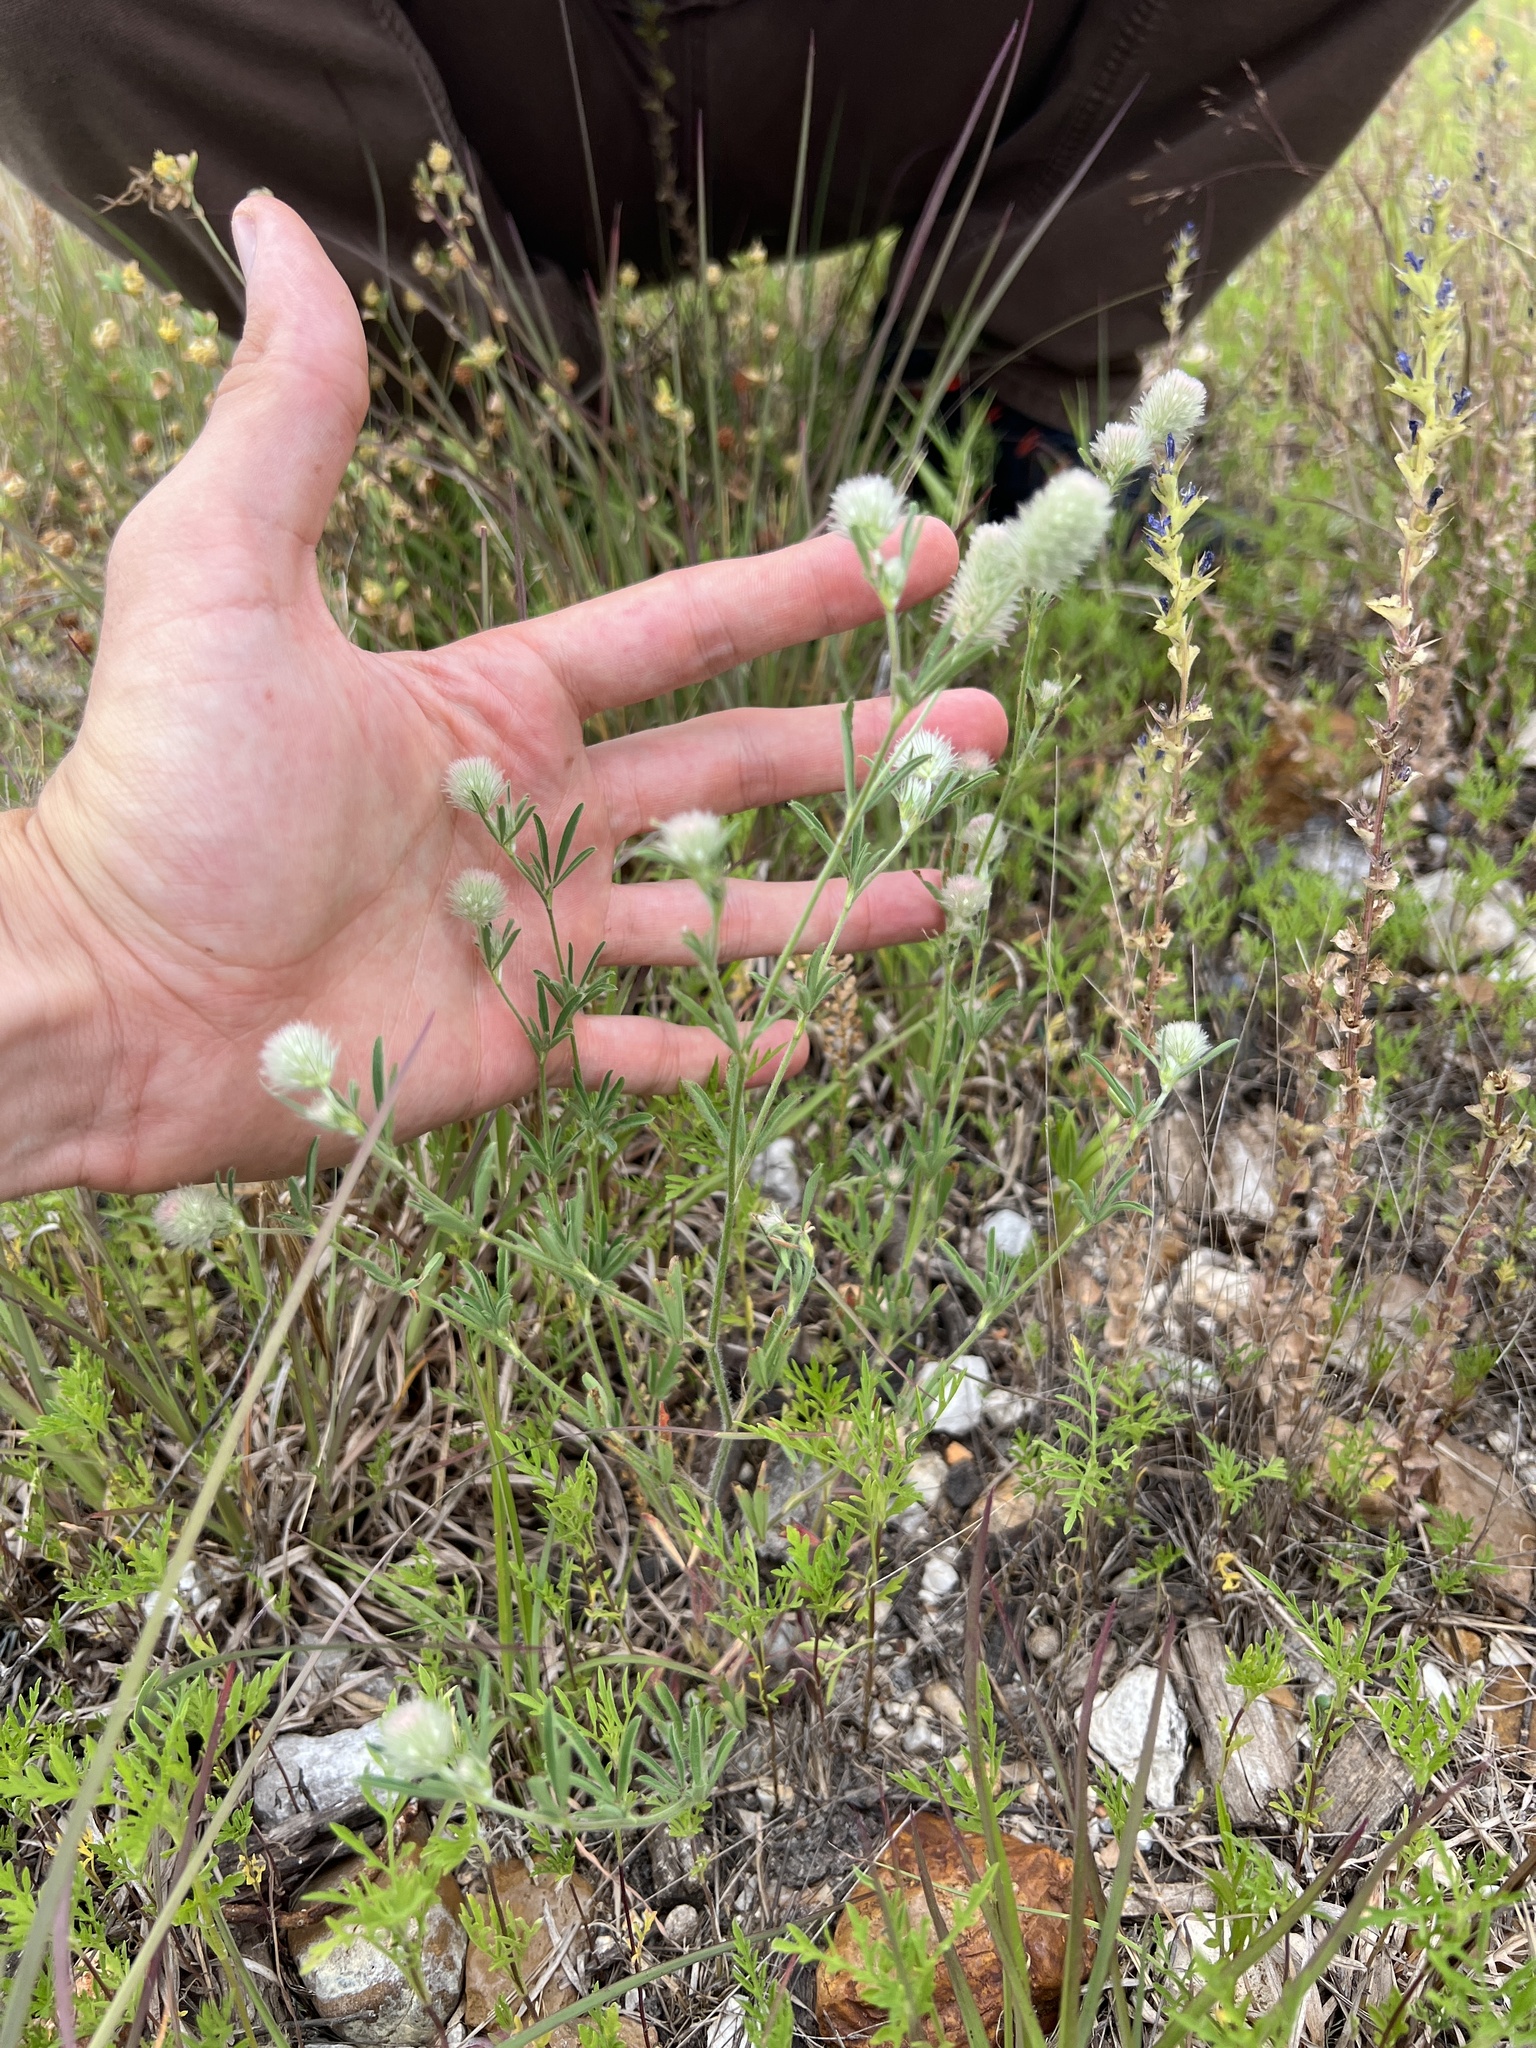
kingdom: Plantae
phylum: Tracheophyta
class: Magnoliopsida
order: Fabales
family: Fabaceae
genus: Trifolium
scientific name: Trifolium arvense
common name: Hare's-foot clover
